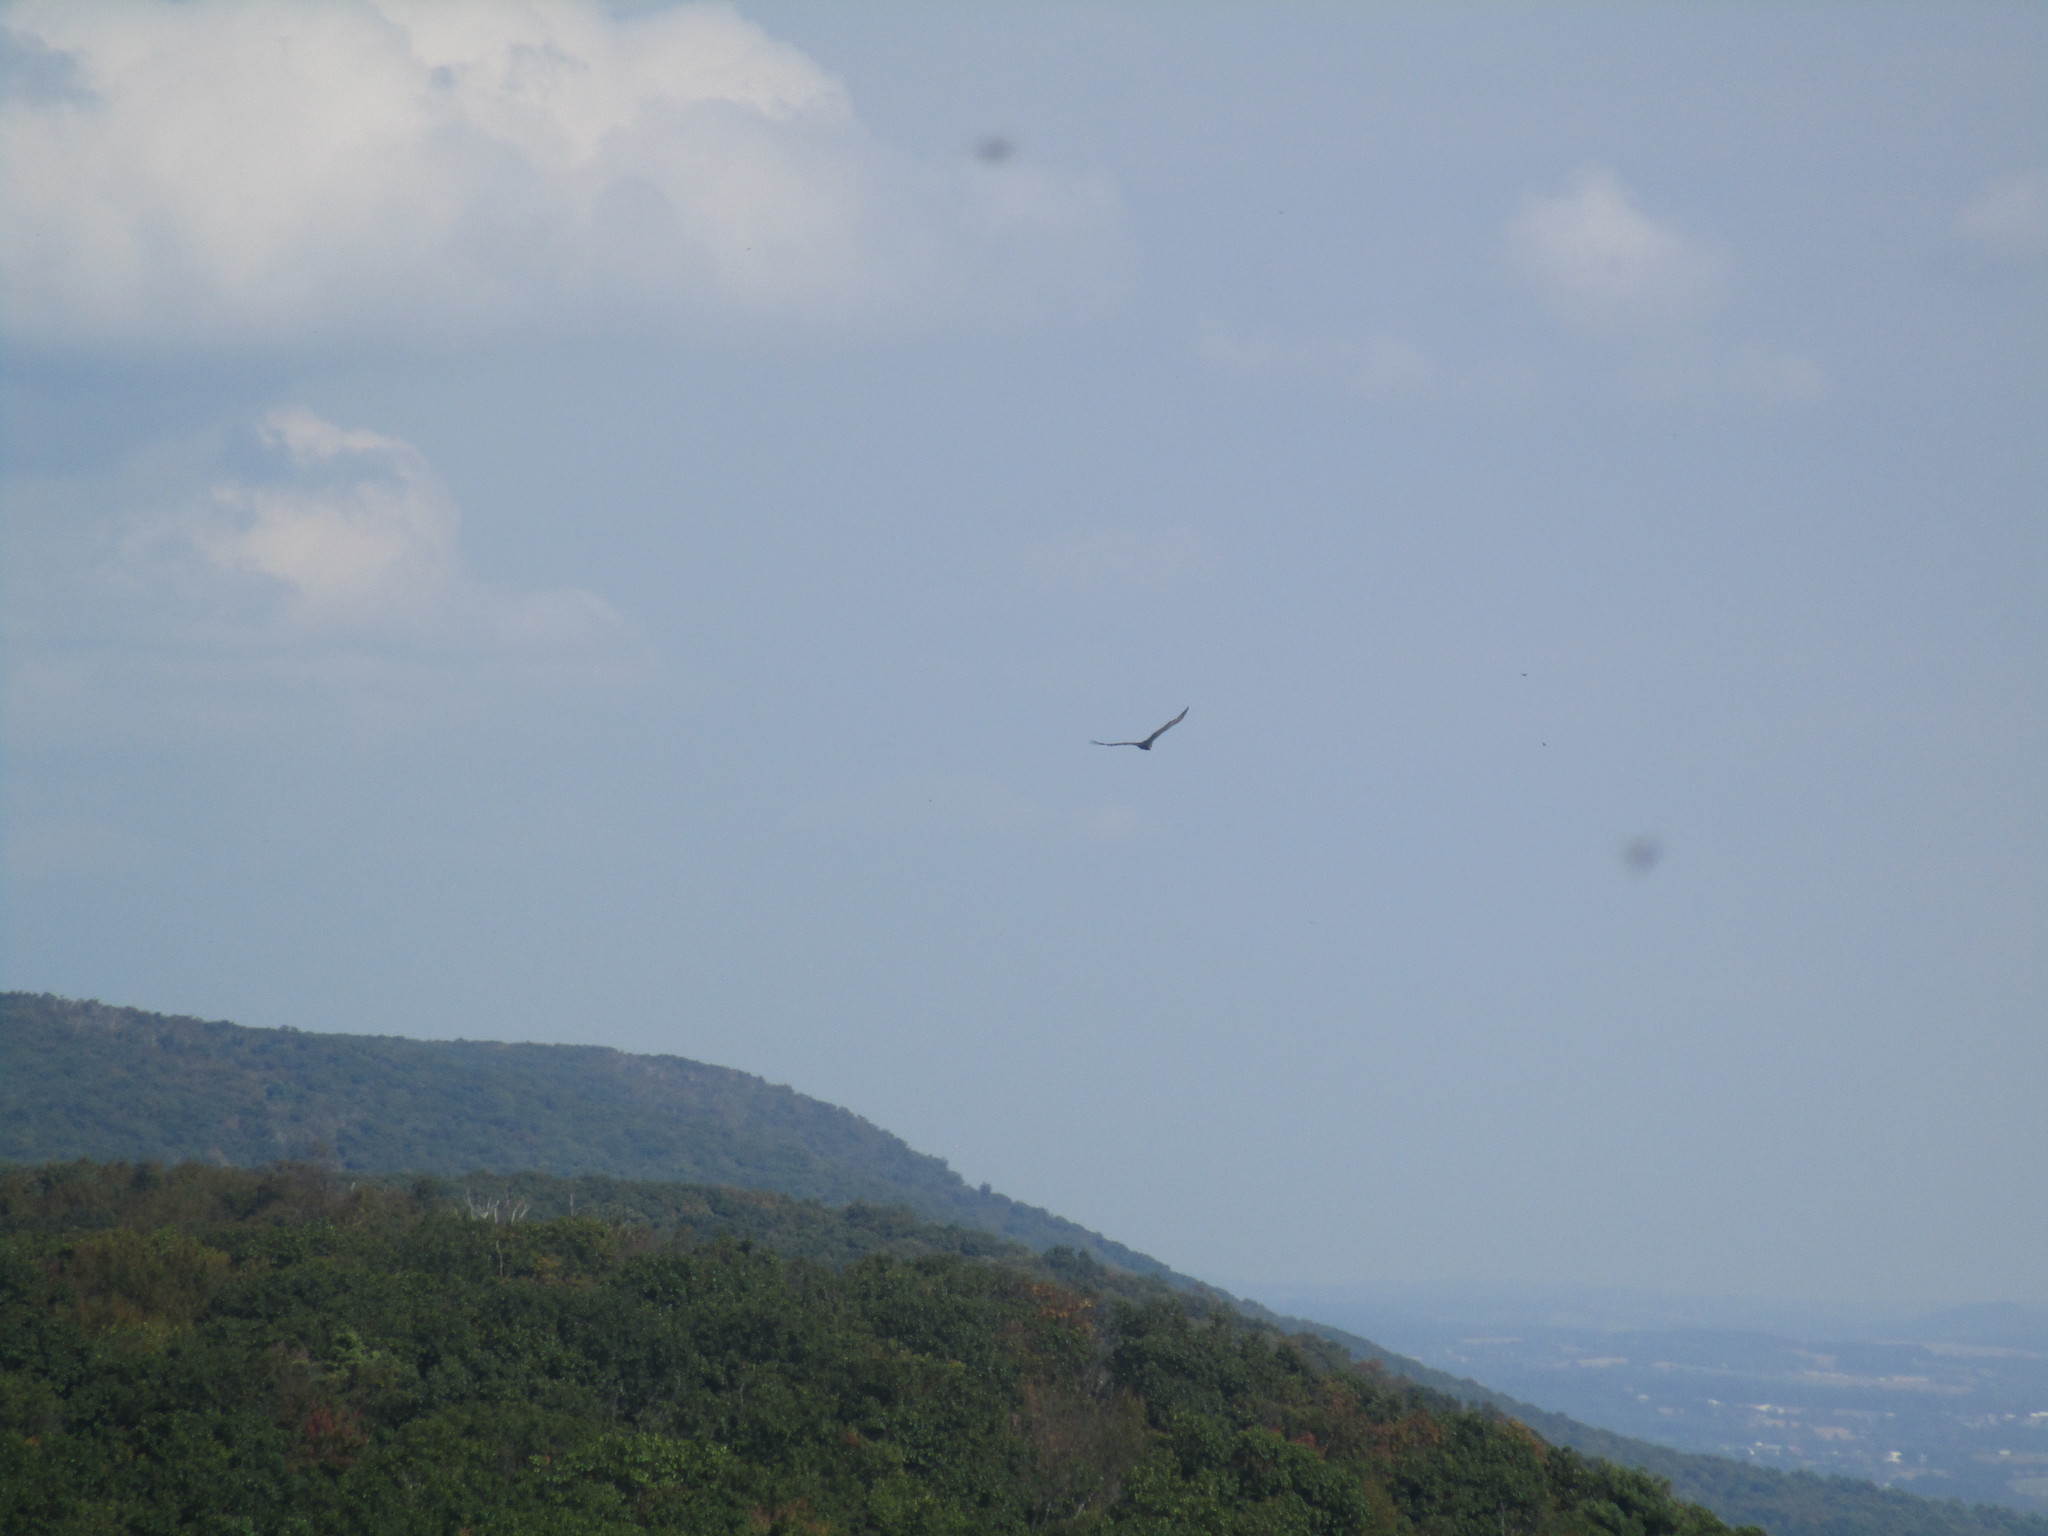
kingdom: Animalia
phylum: Chordata
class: Aves
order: Accipitriformes
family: Cathartidae
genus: Cathartes
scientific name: Cathartes aura
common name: Turkey vulture
